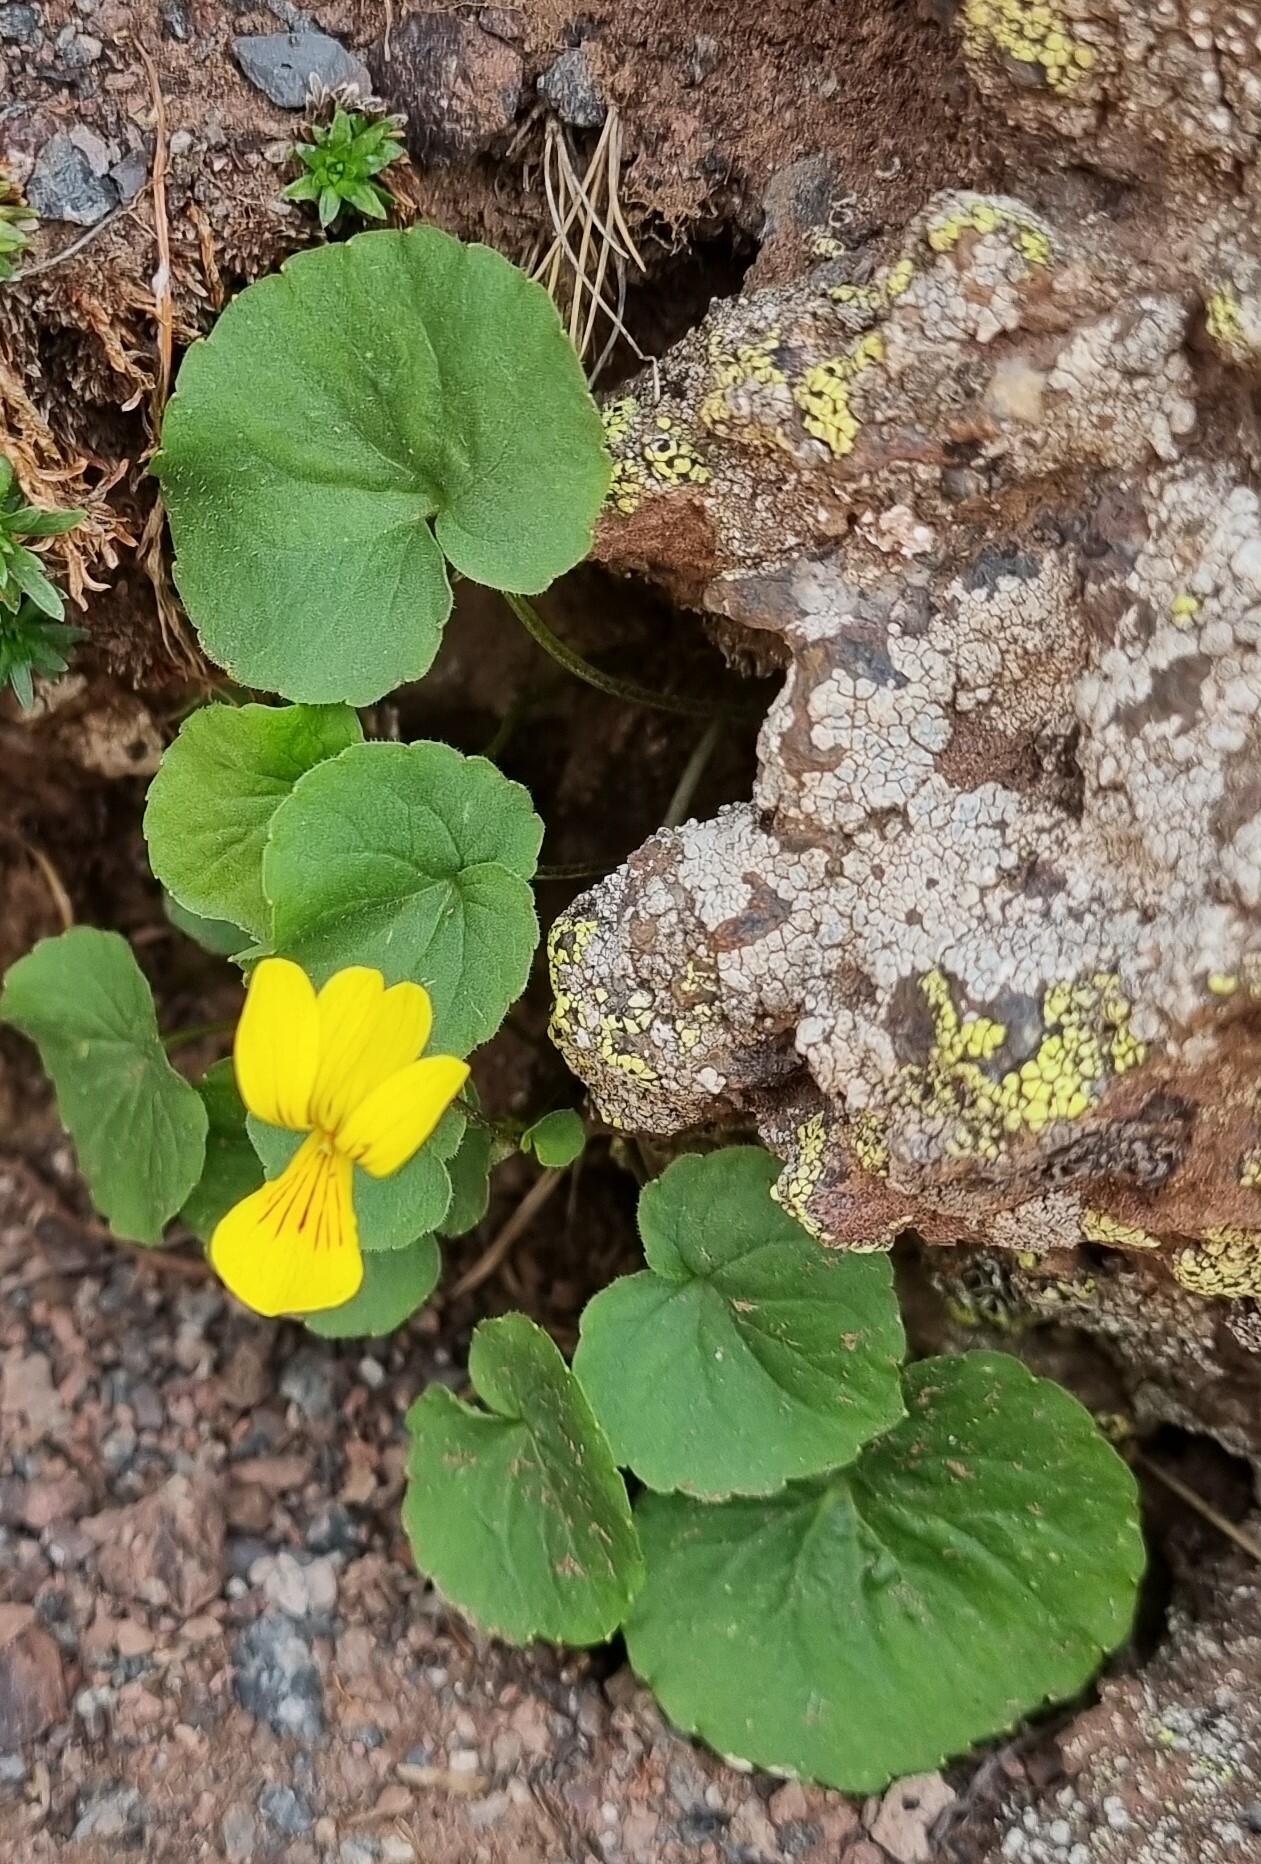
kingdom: Plantae
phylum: Tracheophyta
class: Magnoliopsida
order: Malpighiales
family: Violaceae
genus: Viola
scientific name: Viola caucasica
